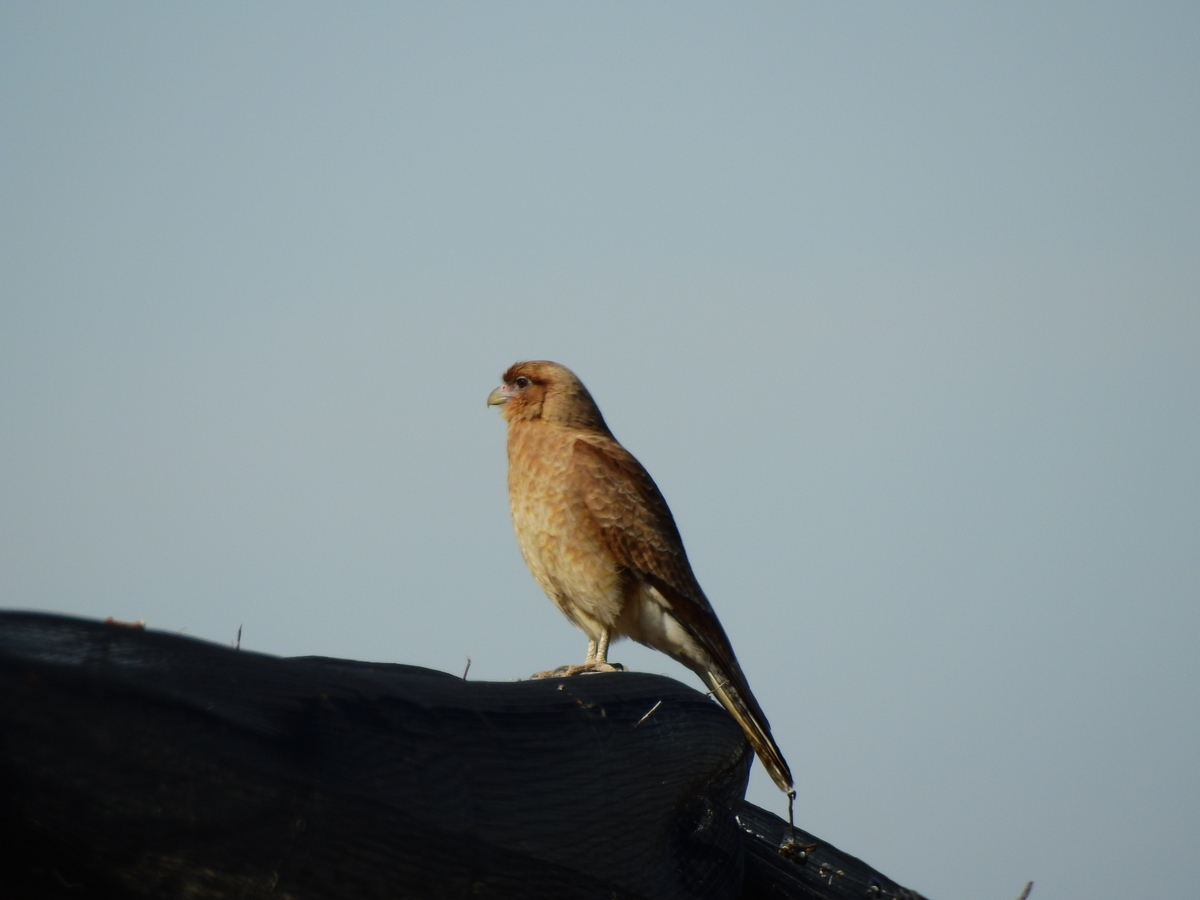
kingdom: Animalia
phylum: Chordata
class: Aves
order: Falconiformes
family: Falconidae
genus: Daptrius
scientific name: Daptrius
